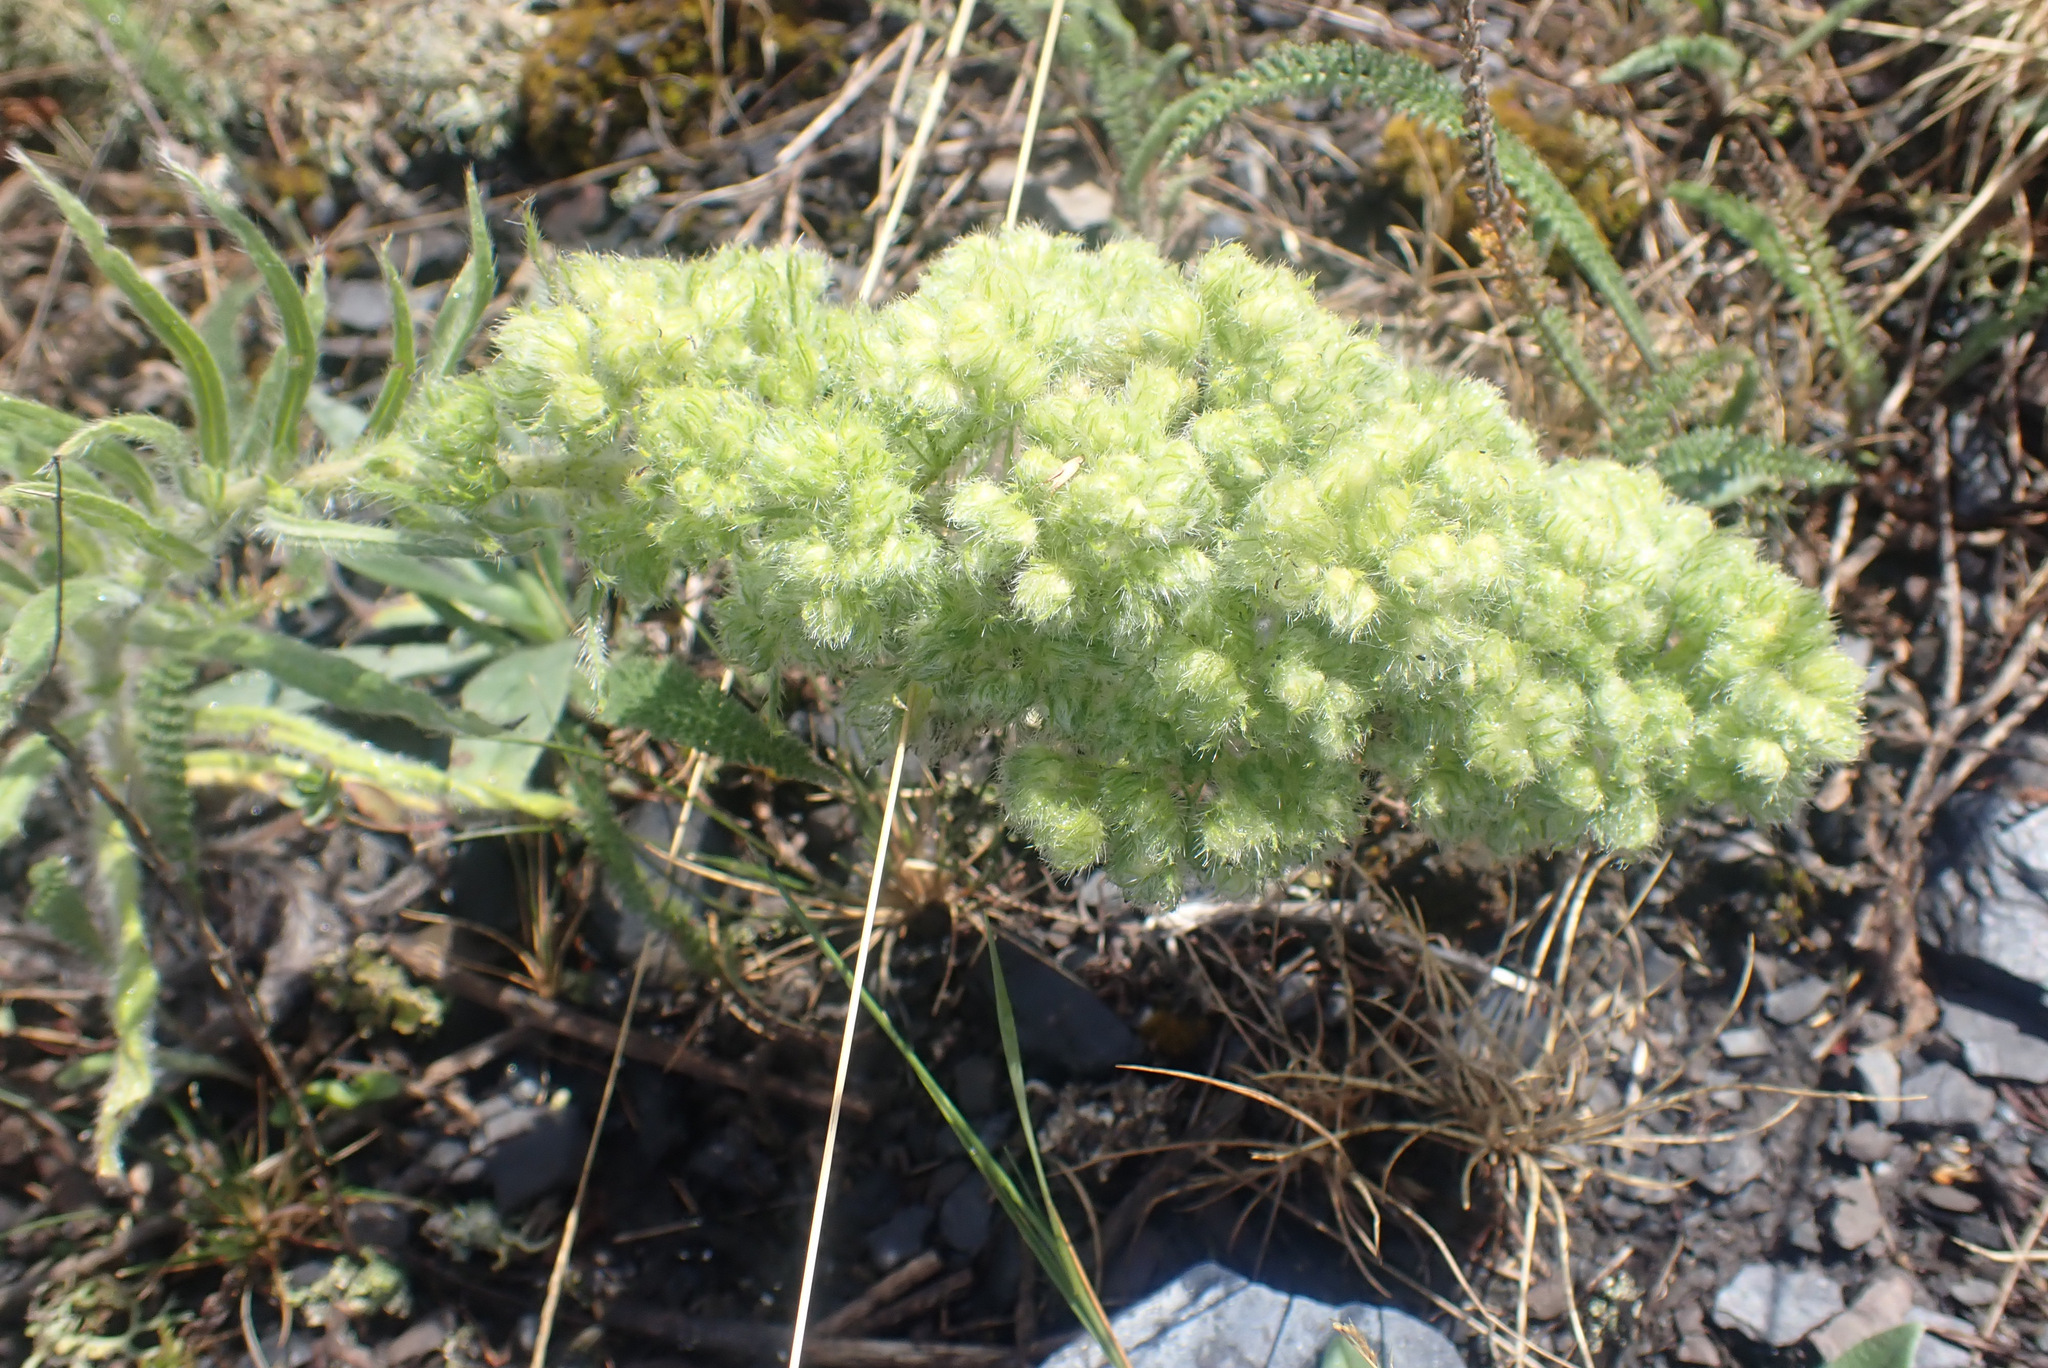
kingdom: Animalia
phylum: Arthropoda
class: Arachnida
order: Trombidiformes
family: Eriophyidae
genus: Aceria
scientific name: Aceria echii
